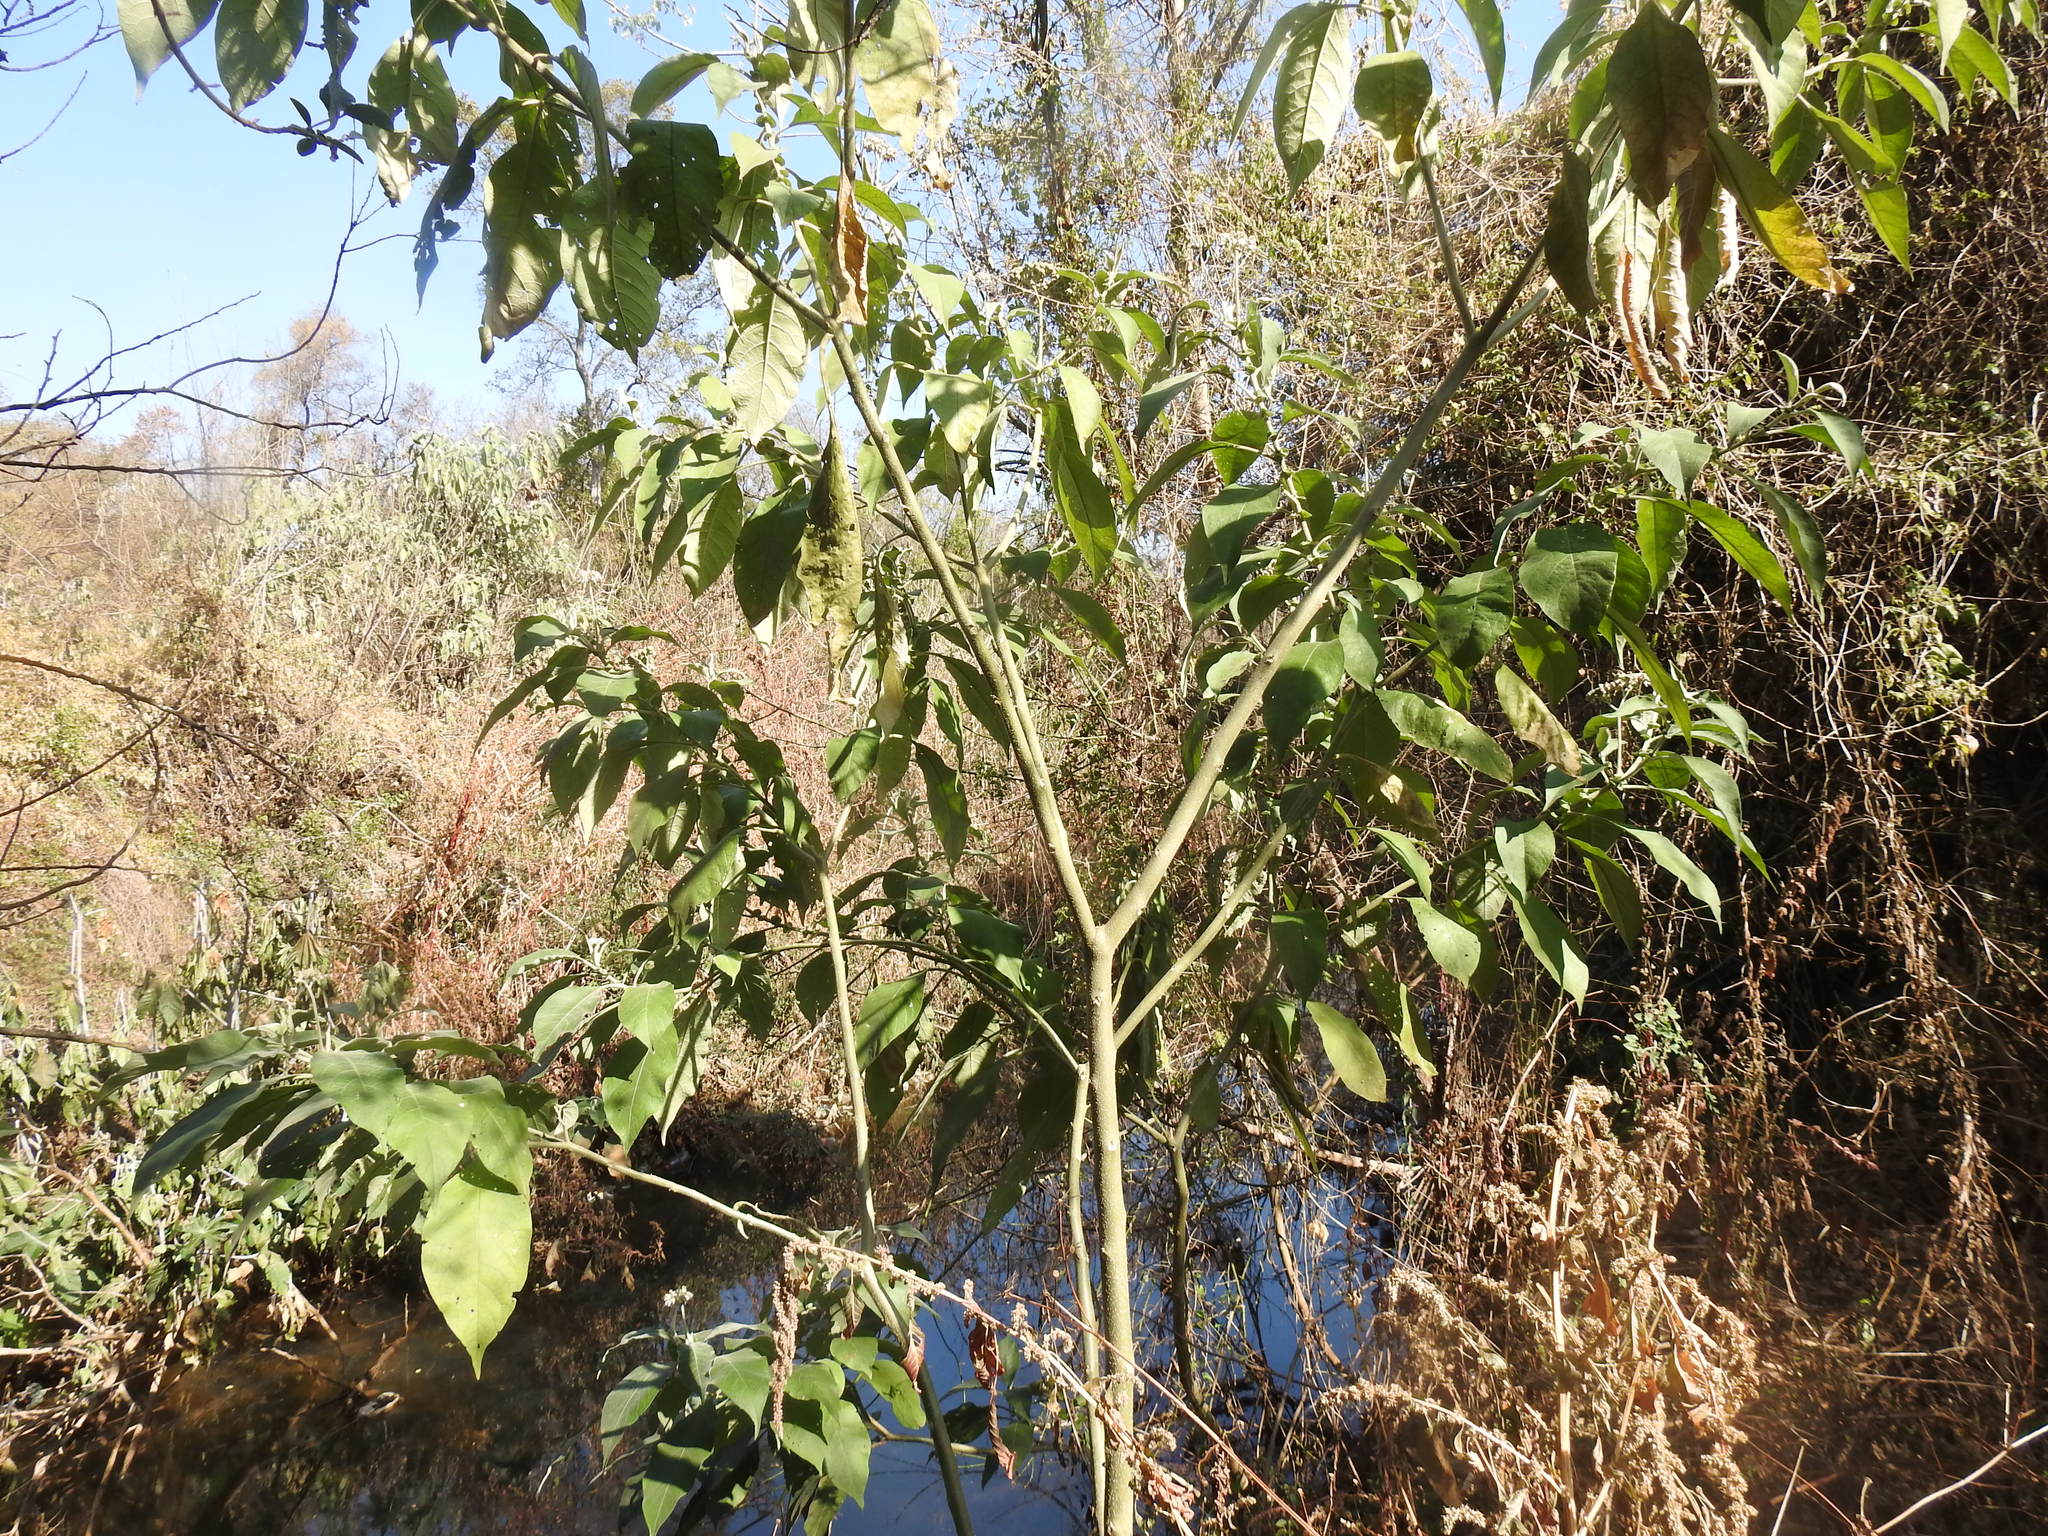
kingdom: Plantae
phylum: Tracheophyta
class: Magnoliopsida
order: Solanales
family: Solanaceae
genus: Solanum
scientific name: Solanum mauritianum
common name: Earleaf nightshade
